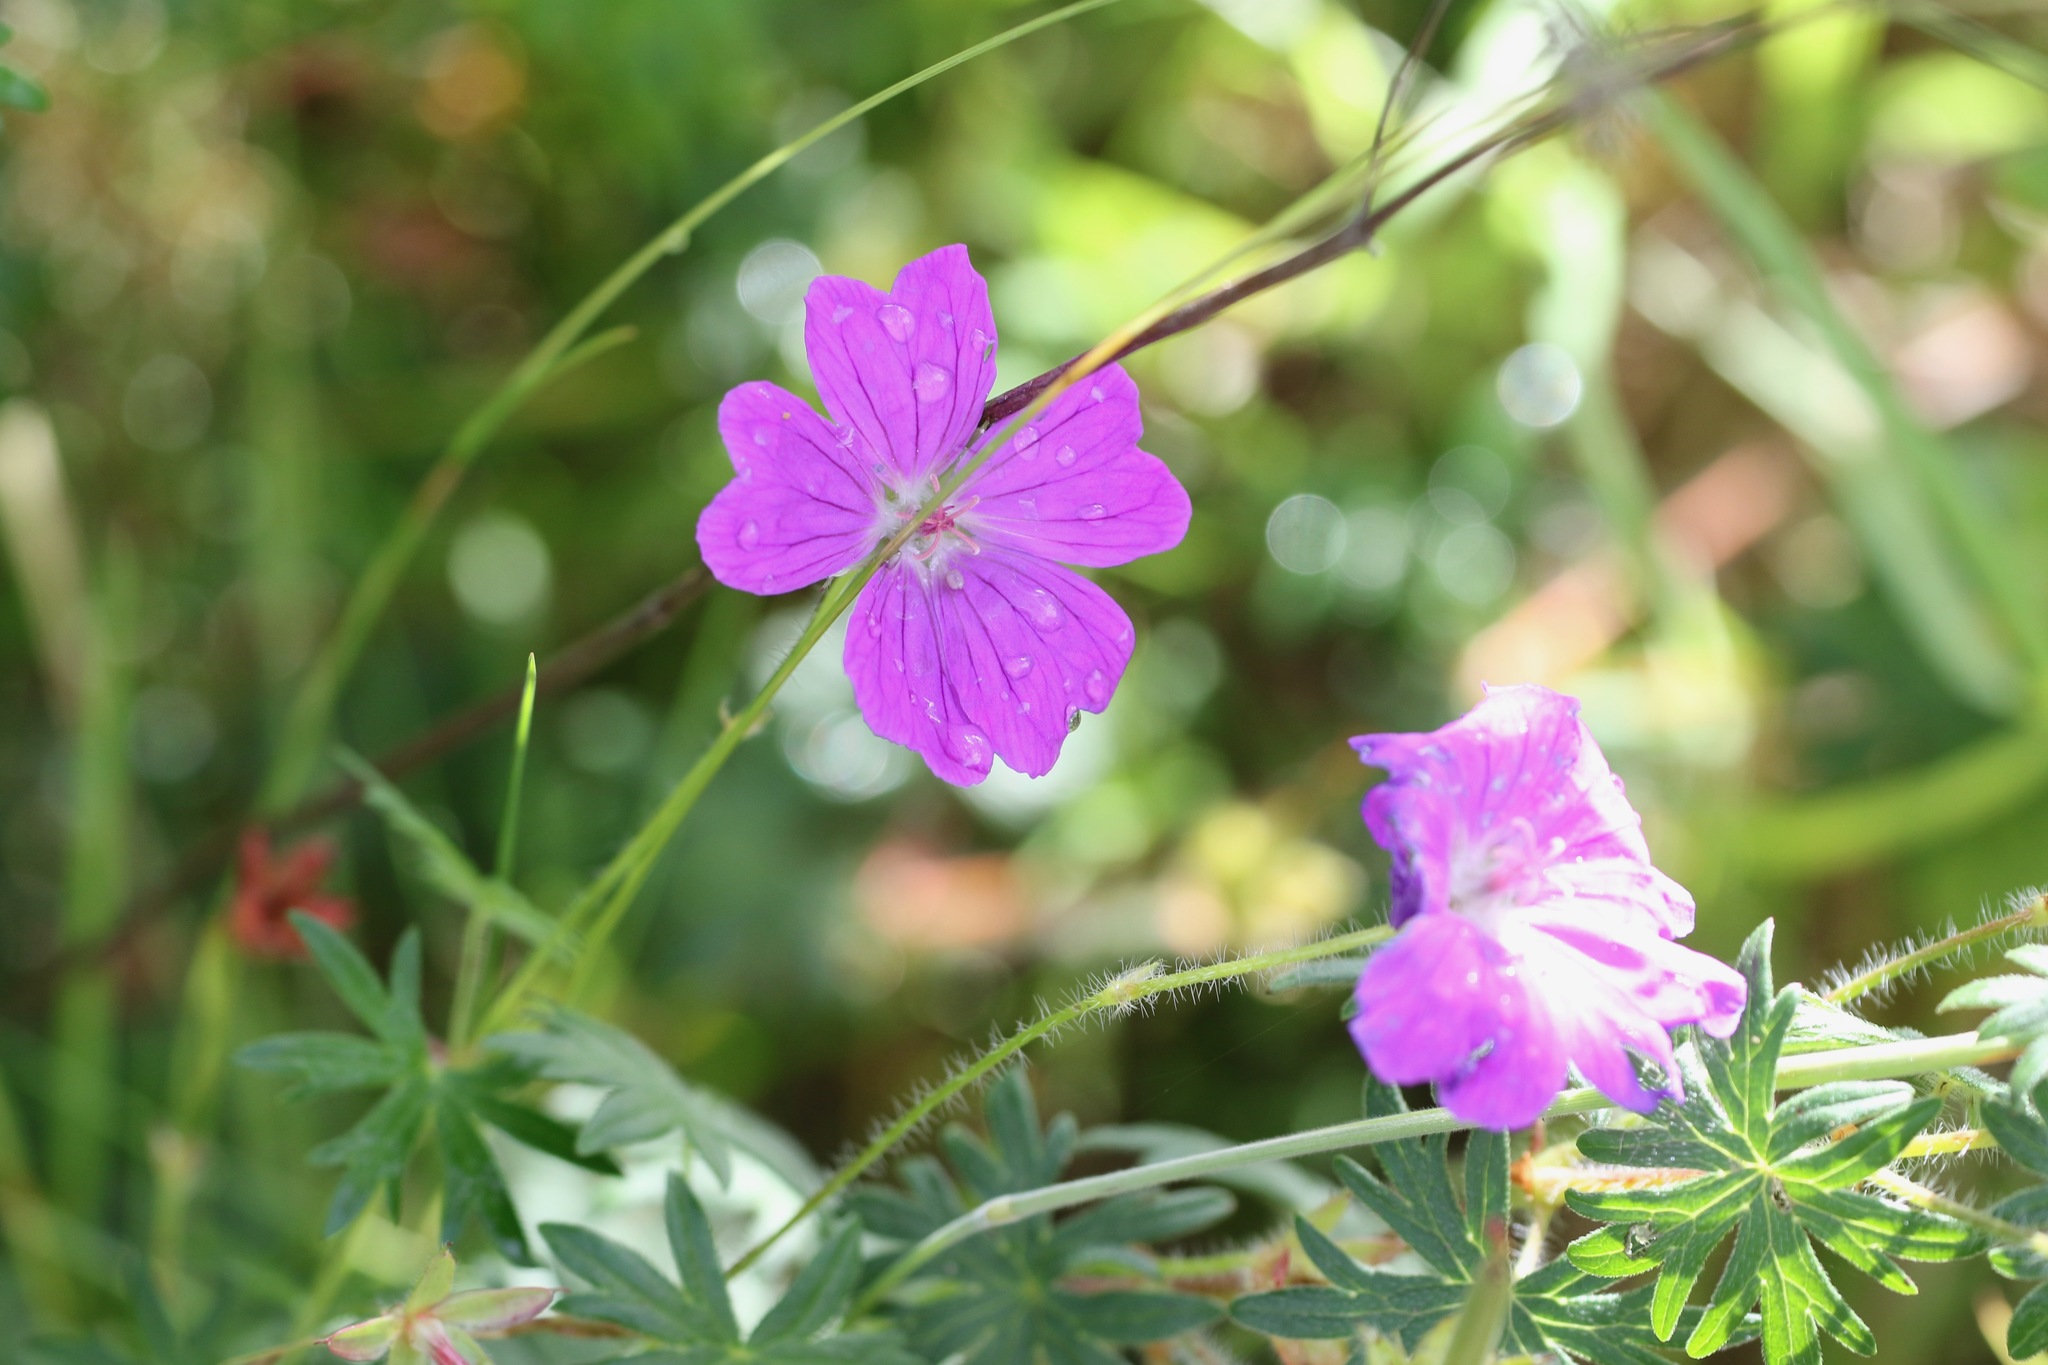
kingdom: Plantae
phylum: Tracheophyta
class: Magnoliopsida
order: Geraniales
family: Geraniaceae
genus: Geranium
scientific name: Geranium sanguineum
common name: Bloody crane's-bill
